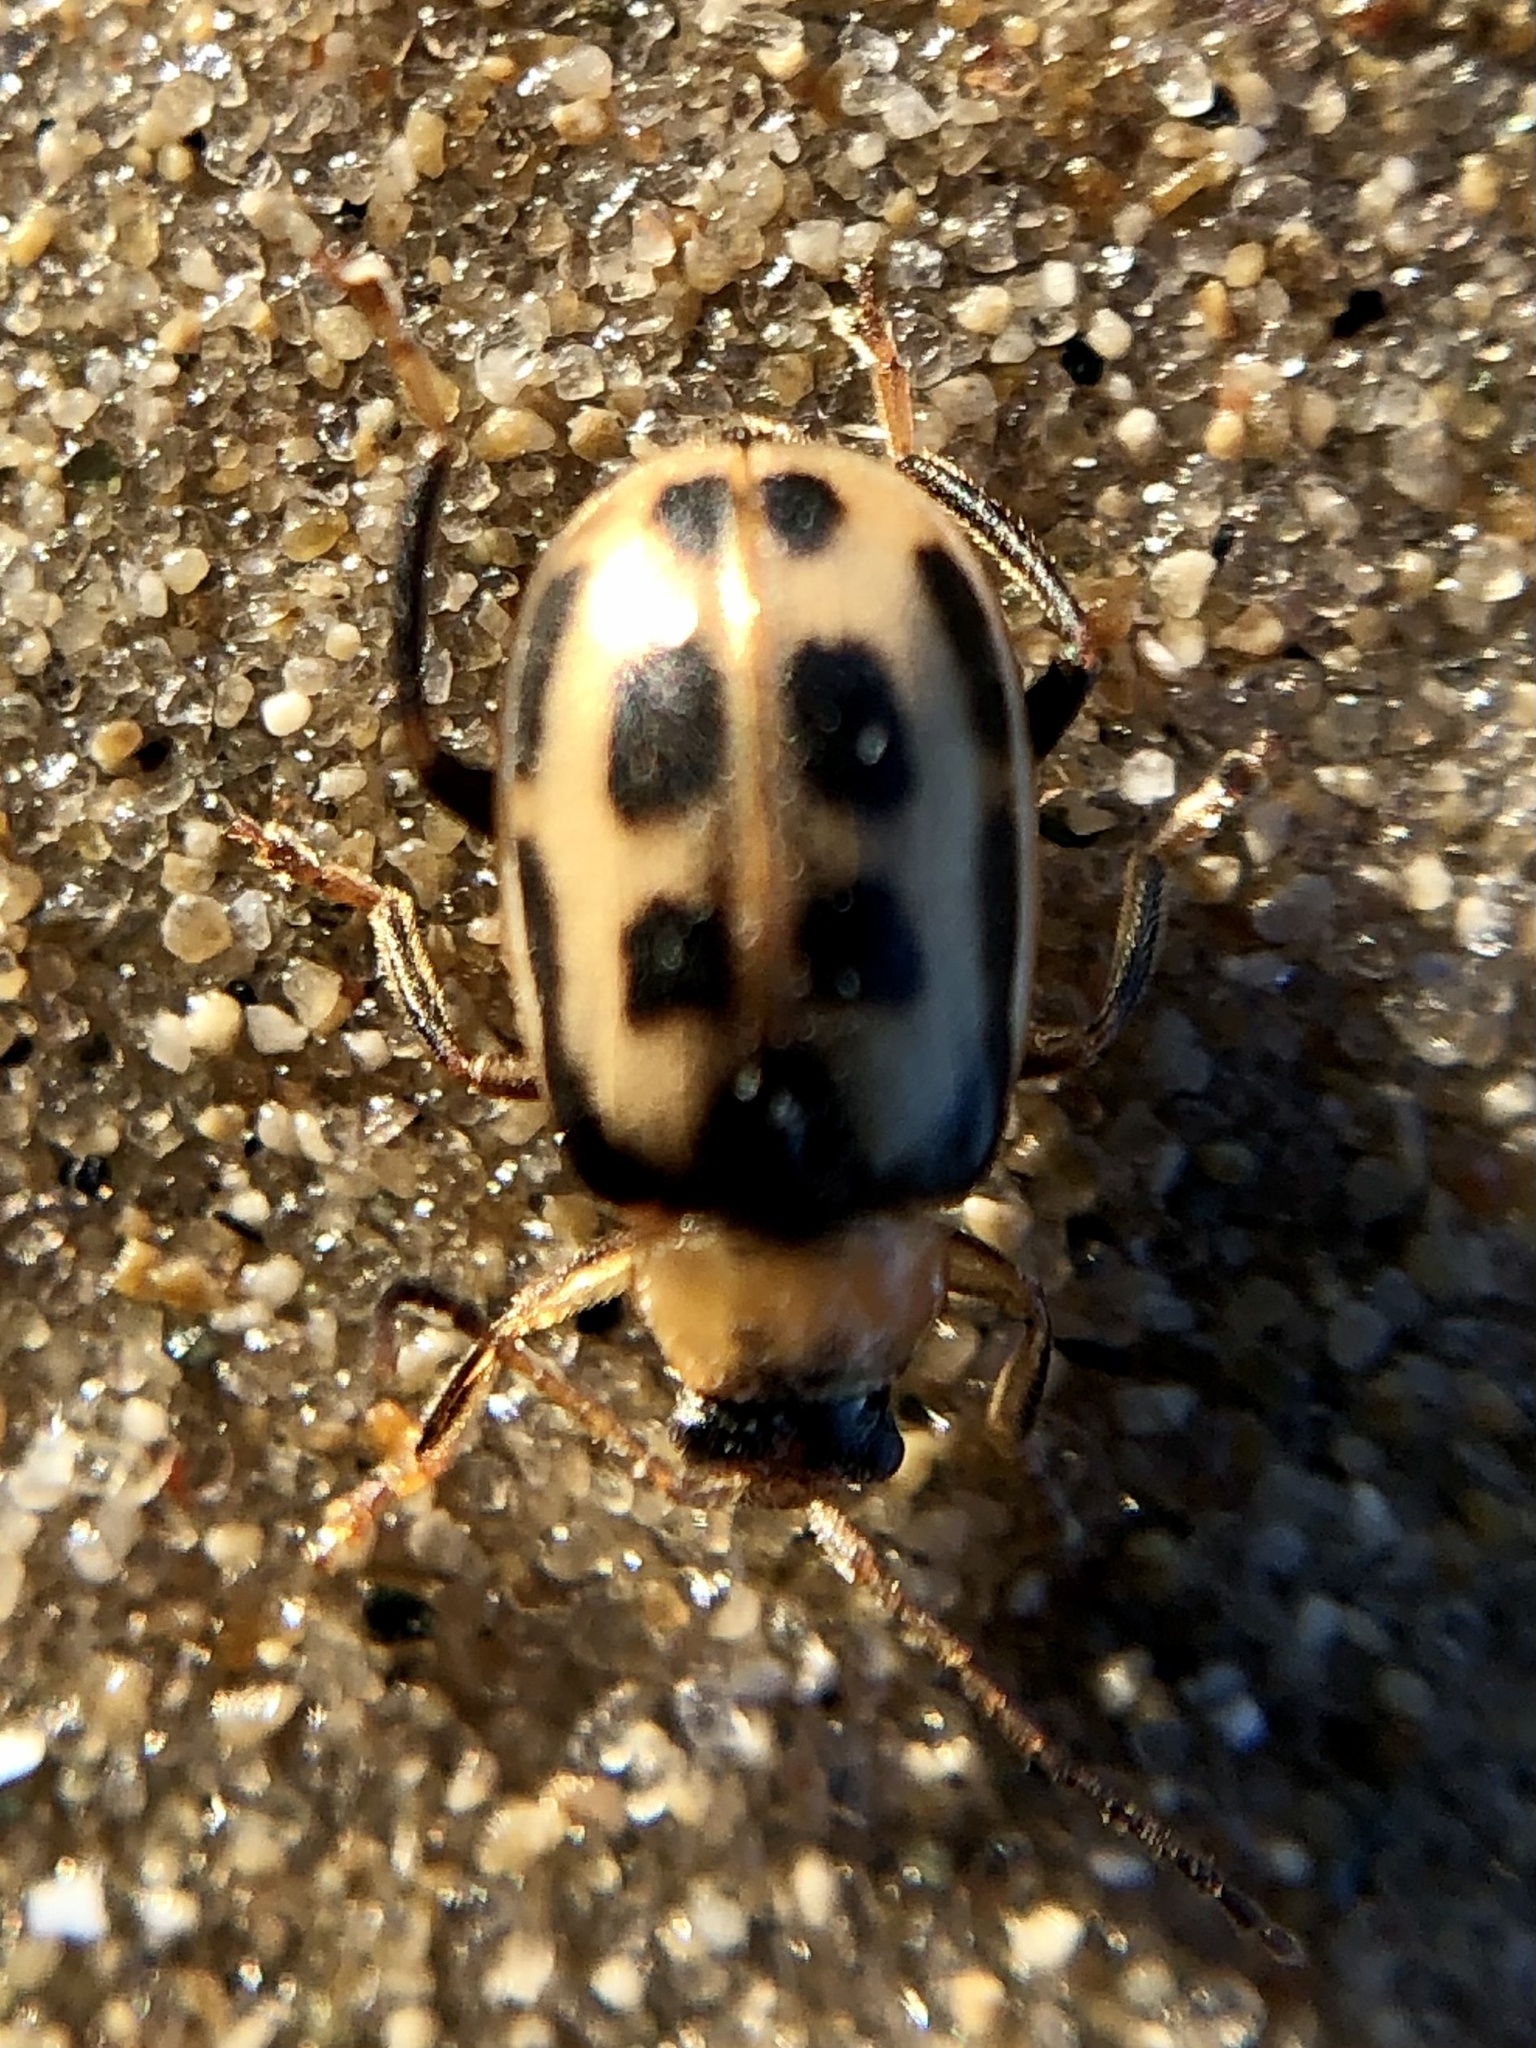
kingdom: Animalia
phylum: Arthropoda
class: Insecta
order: Coleoptera
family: Chrysomelidae
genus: Cerotoma
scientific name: Cerotoma trifurcata
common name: Bean leaf beetle
